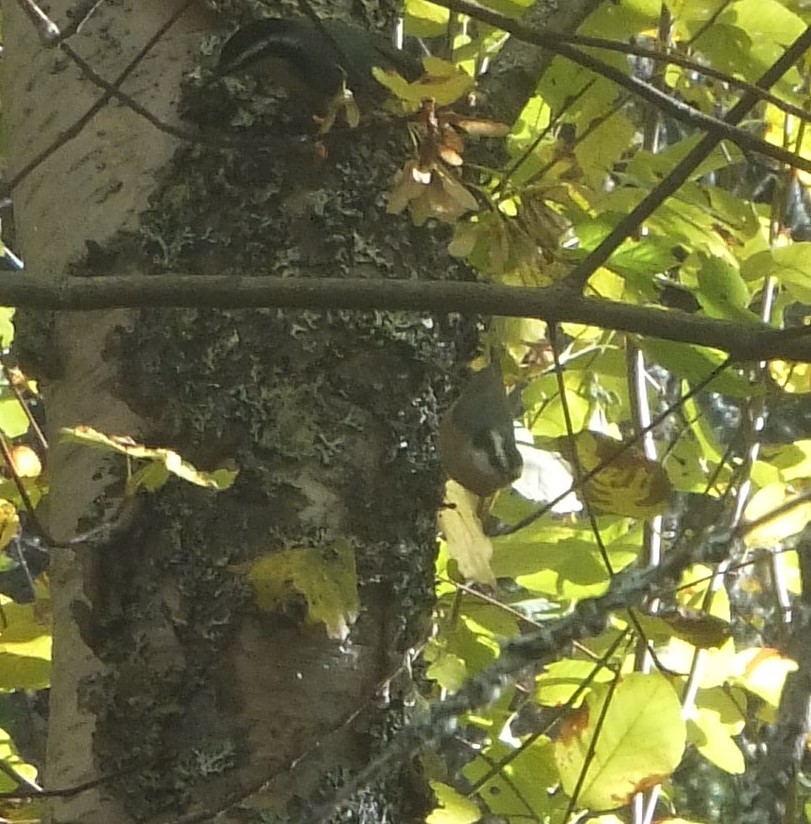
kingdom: Animalia
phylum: Chordata
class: Aves
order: Passeriformes
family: Sittidae
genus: Sitta
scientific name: Sitta canadensis
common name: Red-breasted nuthatch
